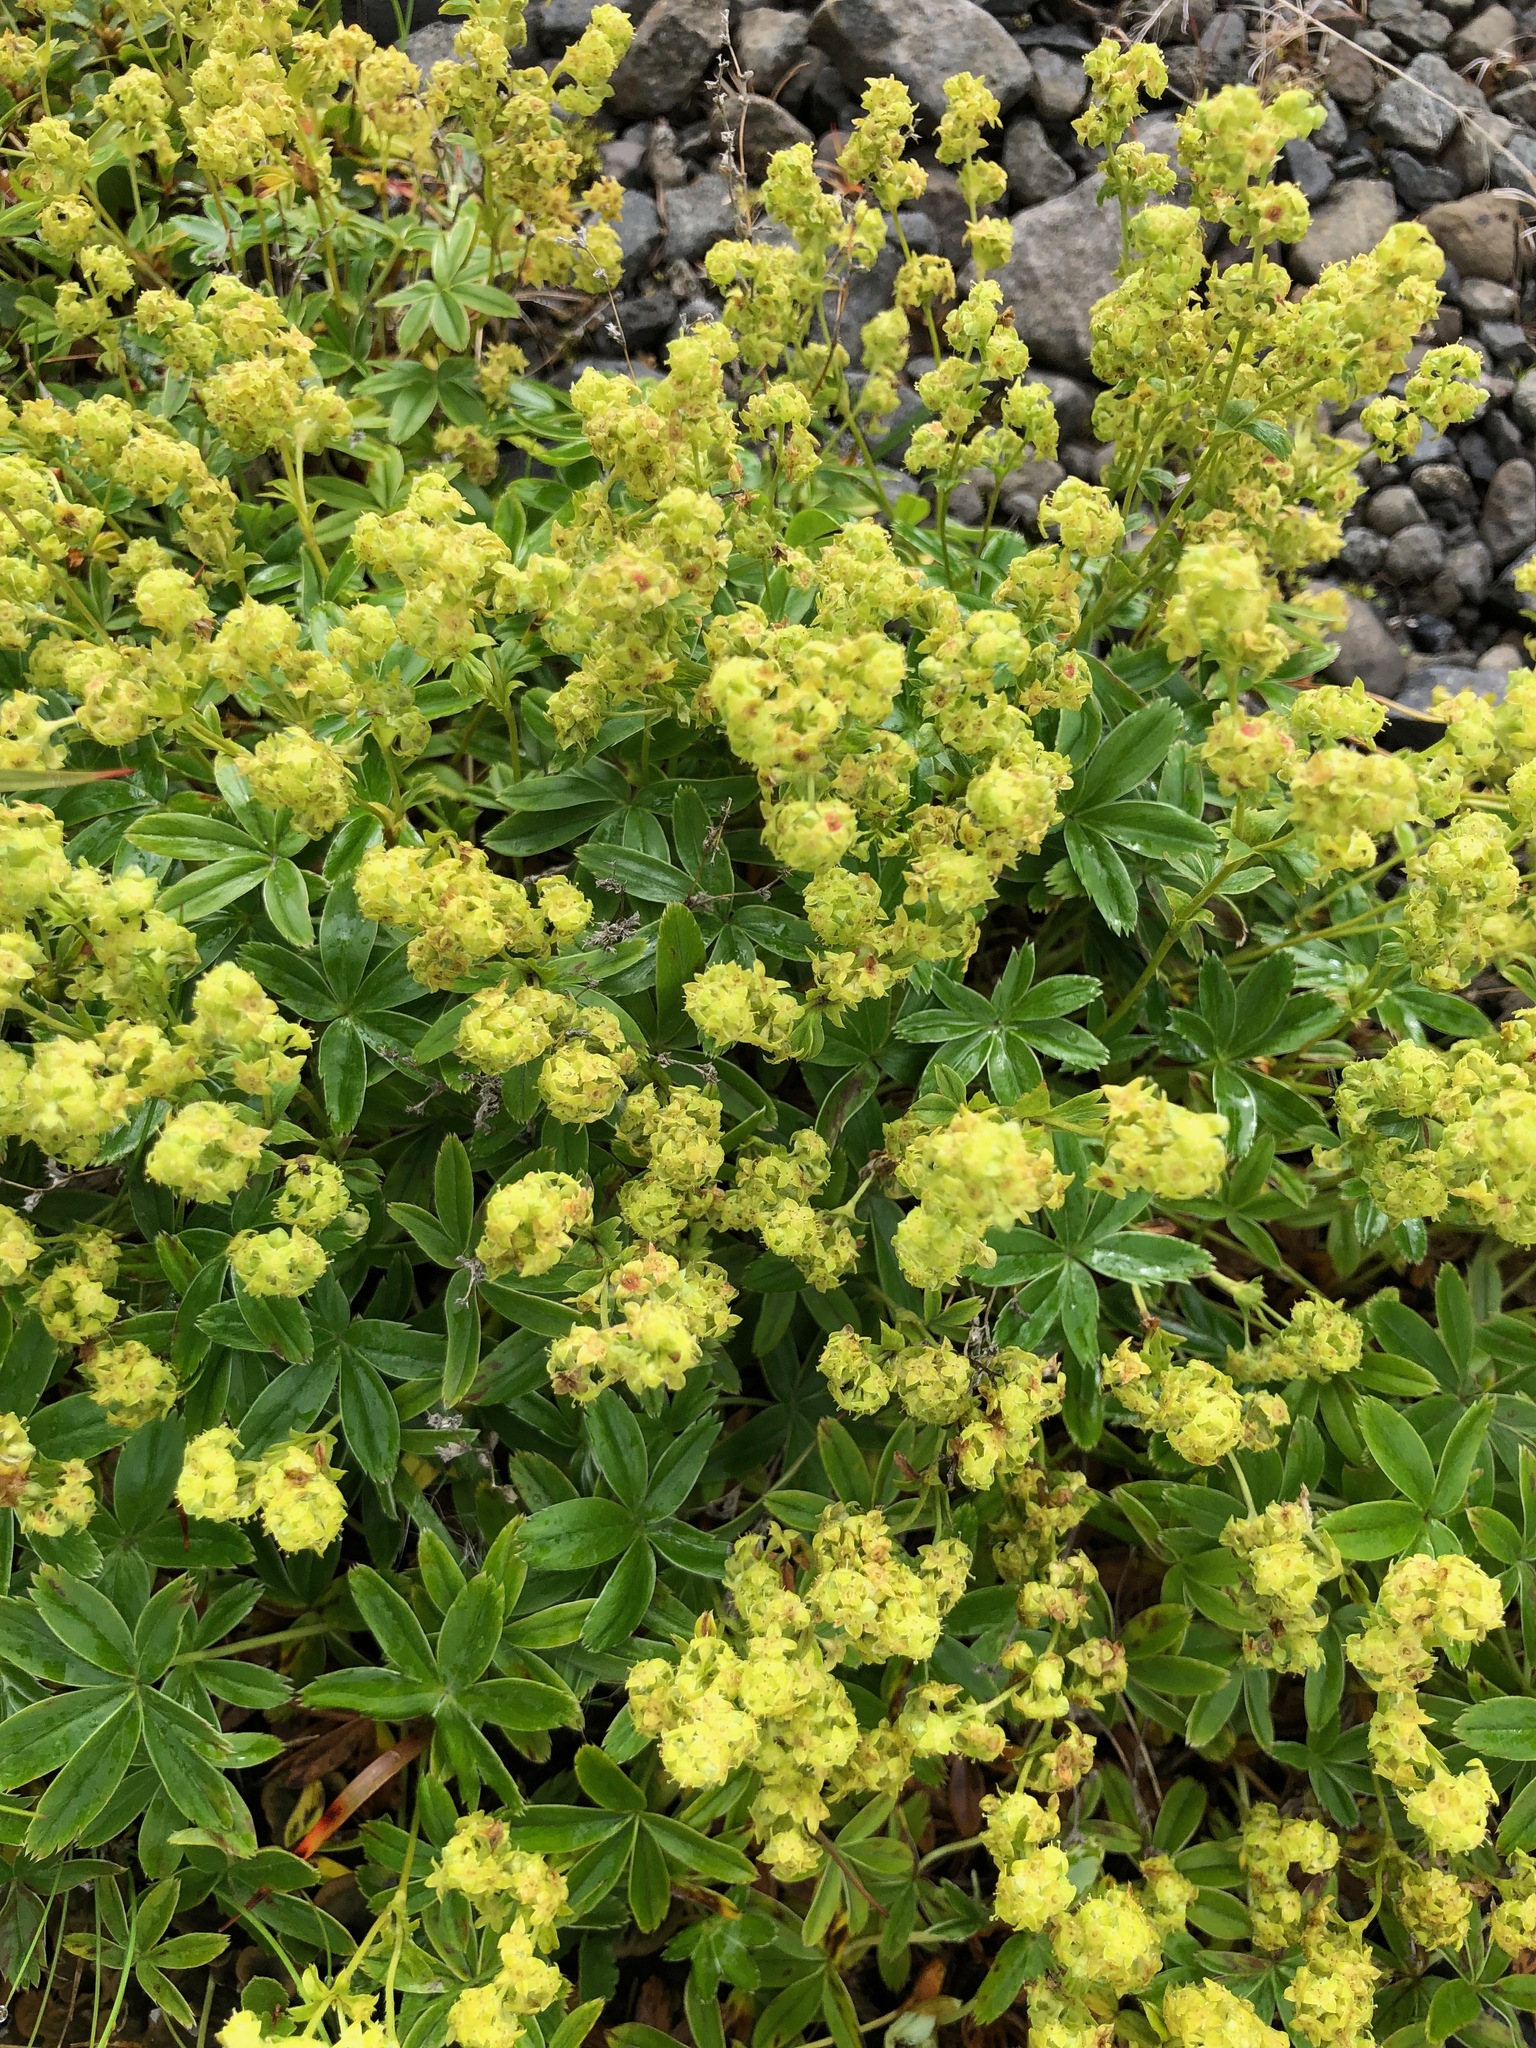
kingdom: Plantae
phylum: Tracheophyta
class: Magnoliopsida
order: Rosales
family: Rosaceae
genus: Alchemilla
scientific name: Alchemilla alpina
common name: Alpine lady's-mantle
